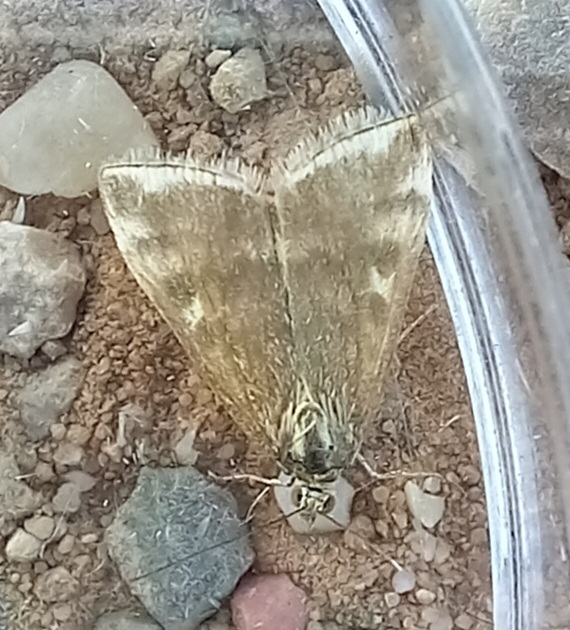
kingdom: Animalia
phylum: Arthropoda
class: Insecta
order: Lepidoptera
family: Crambidae
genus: Loxostege
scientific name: Loxostege sticticalis
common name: Crambid moth
